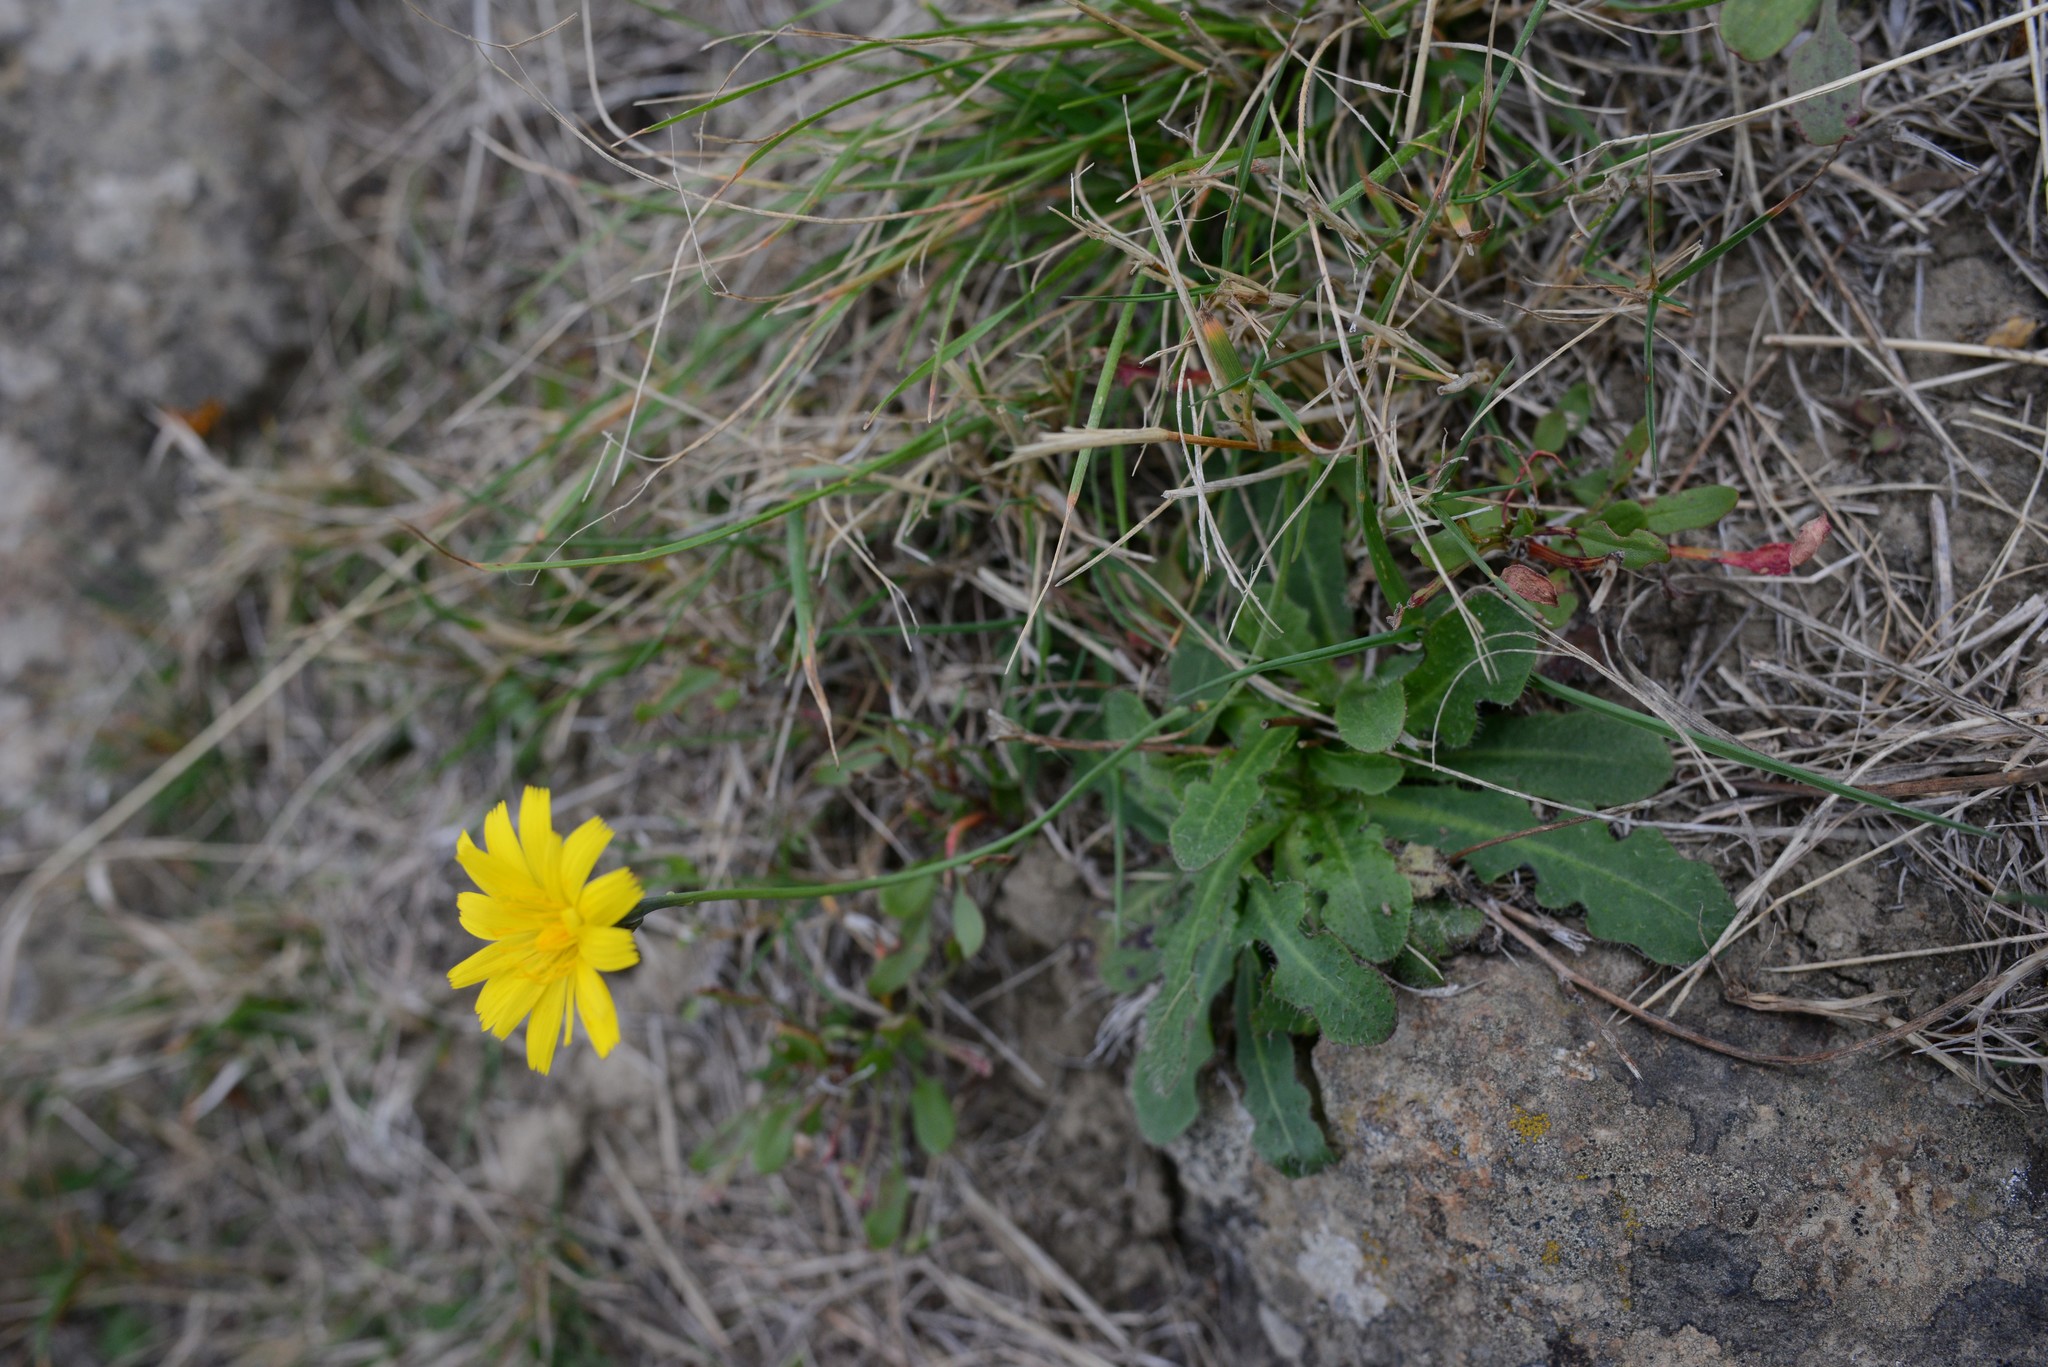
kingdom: Plantae
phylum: Tracheophyta
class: Magnoliopsida
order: Asterales
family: Asteraceae
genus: Hypochaeris
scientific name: Hypochaeris radicata
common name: Flatweed
